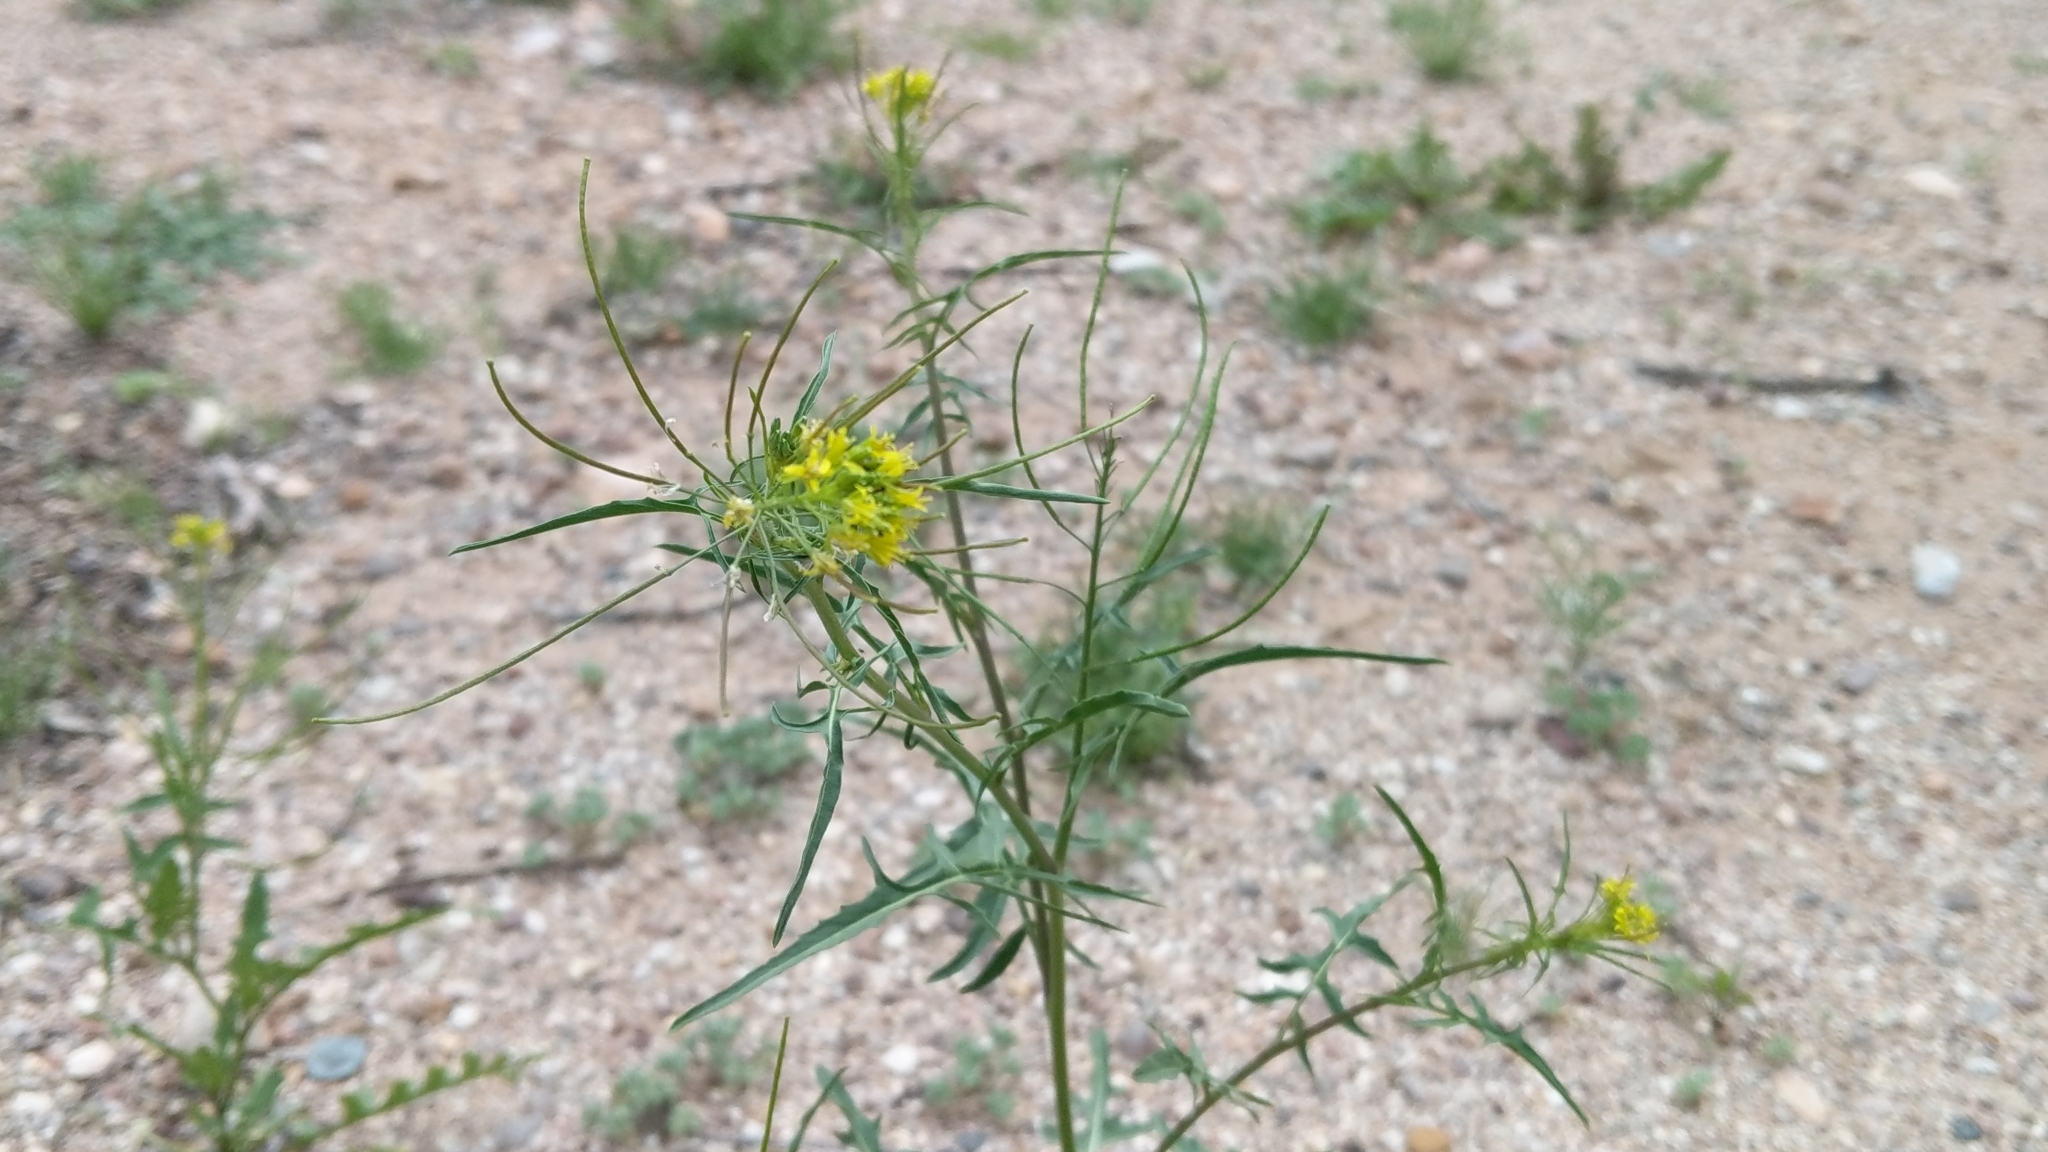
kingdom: Plantae
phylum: Tracheophyta
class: Magnoliopsida
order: Brassicales
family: Brassicaceae
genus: Sisymbrium
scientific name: Sisymbrium irio
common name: London rocket
